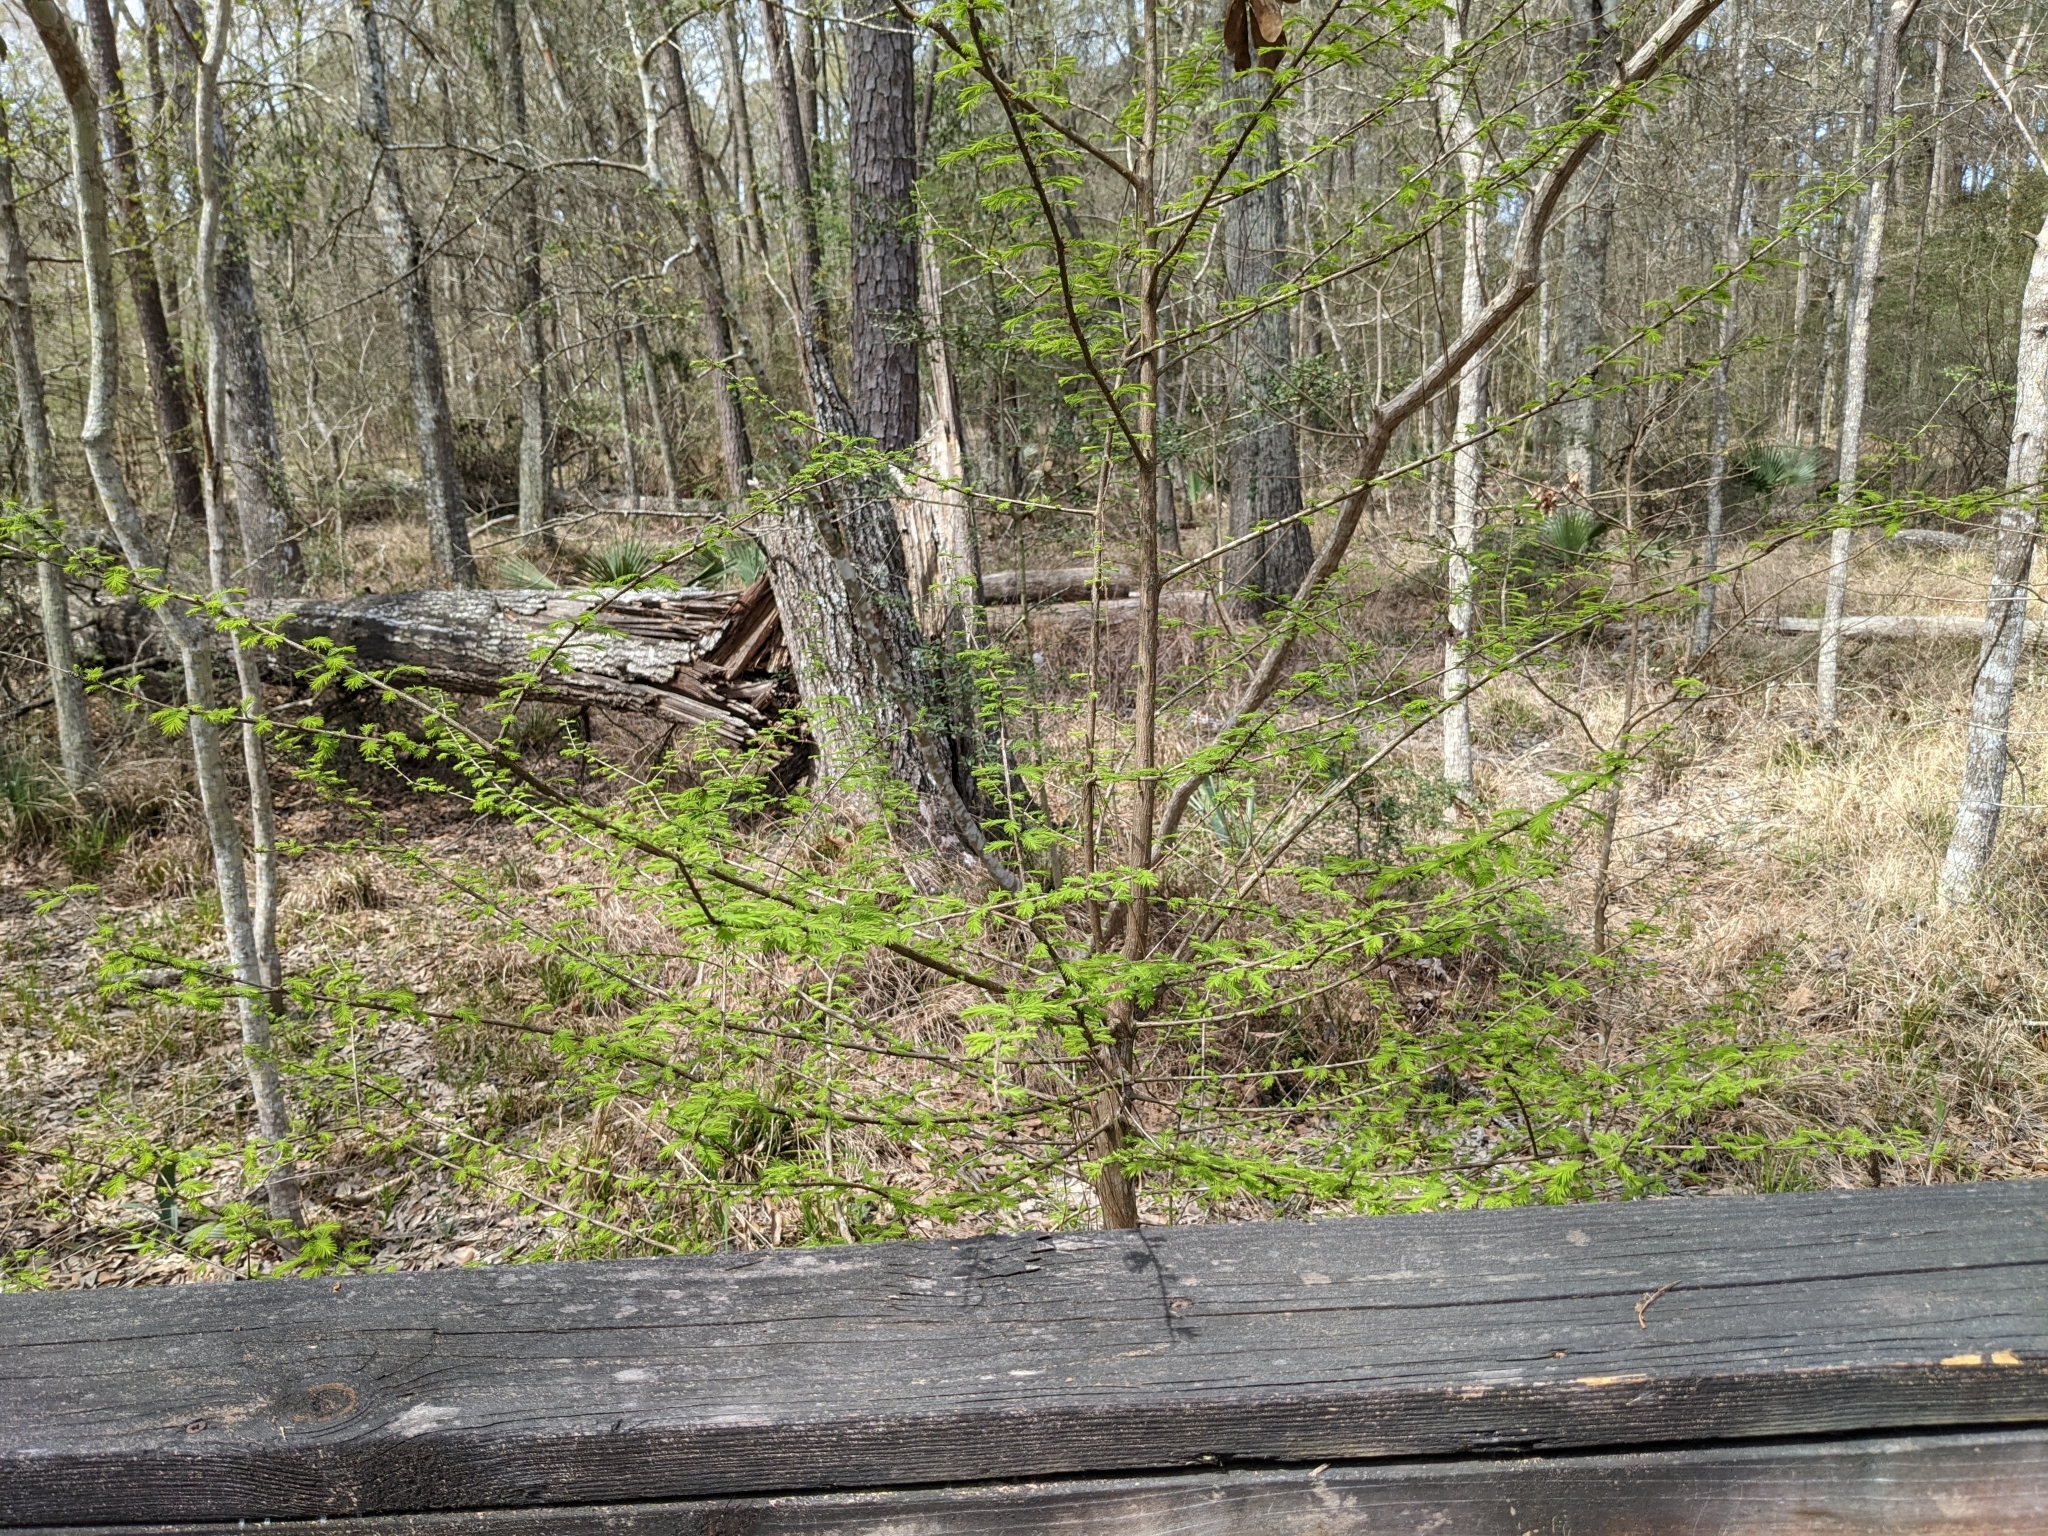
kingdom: Plantae
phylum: Tracheophyta
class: Pinopsida
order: Pinales
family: Cupressaceae
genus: Taxodium
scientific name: Taxodium distichum
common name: Bald cypress
